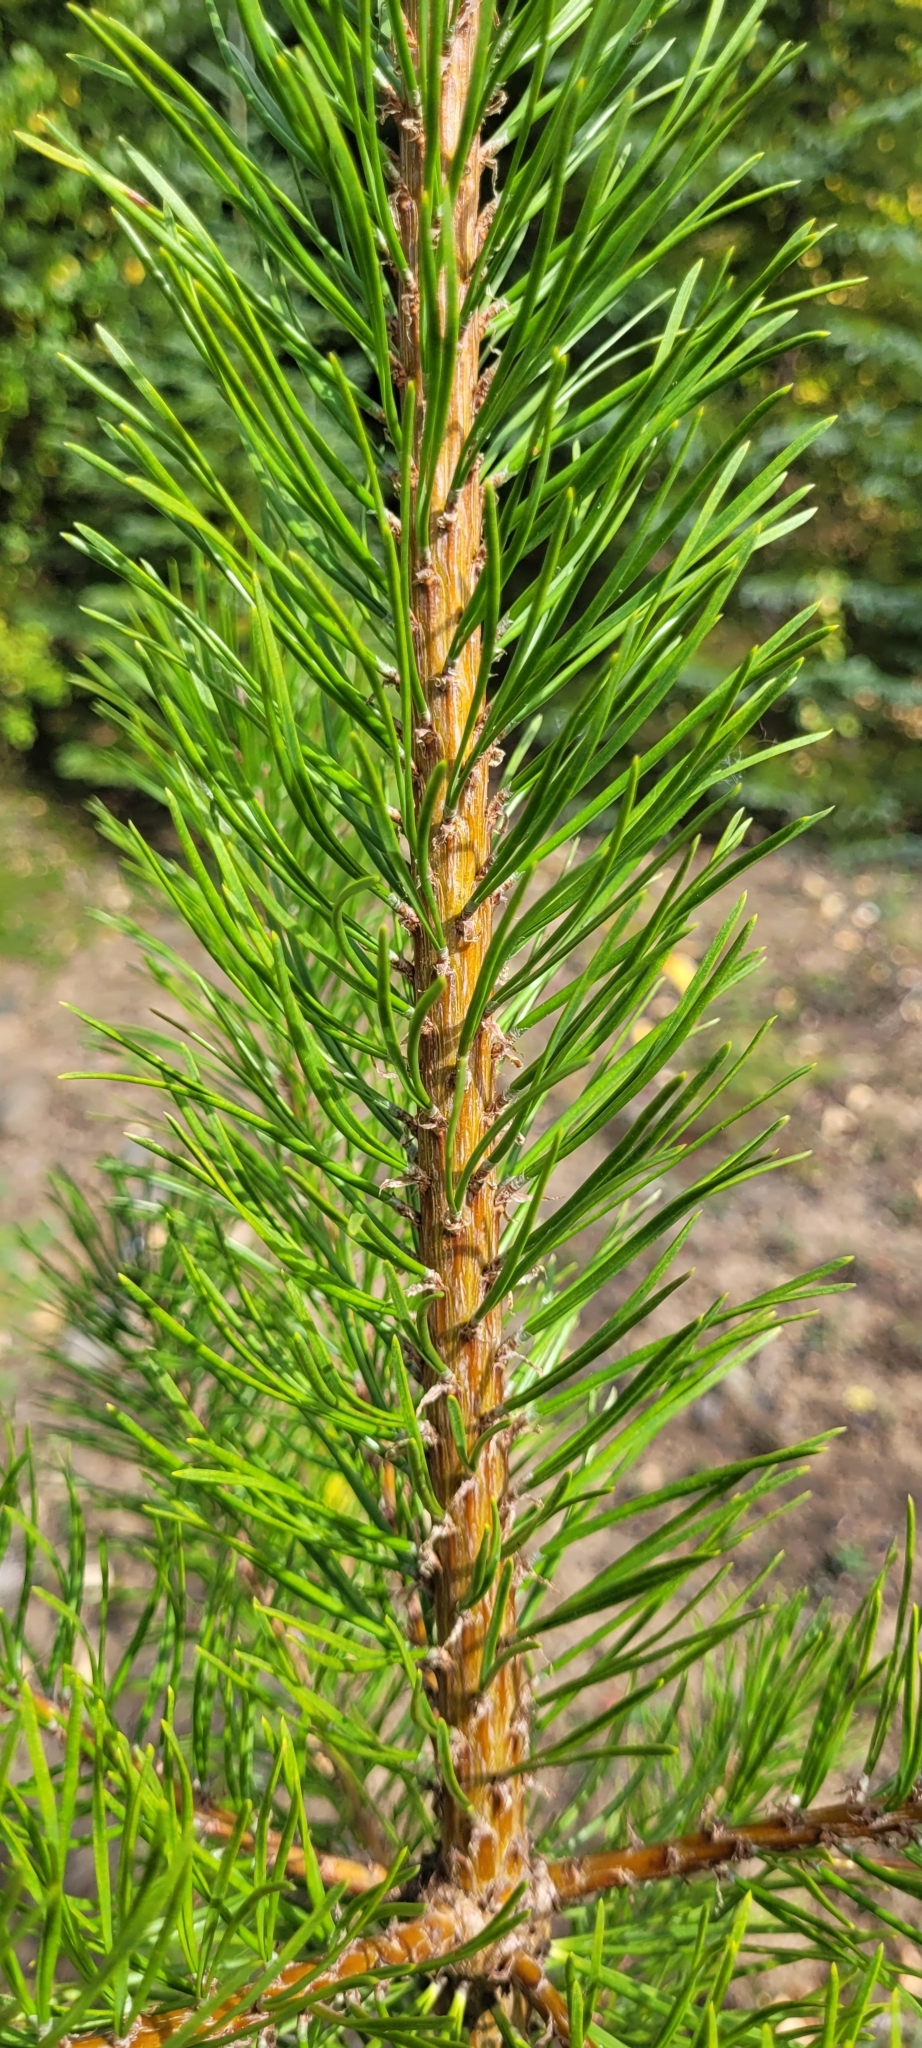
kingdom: Plantae
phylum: Tracheophyta
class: Pinopsida
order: Pinales
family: Pinaceae
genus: Pinus
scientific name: Pinus contorta
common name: Lodgepole pine
